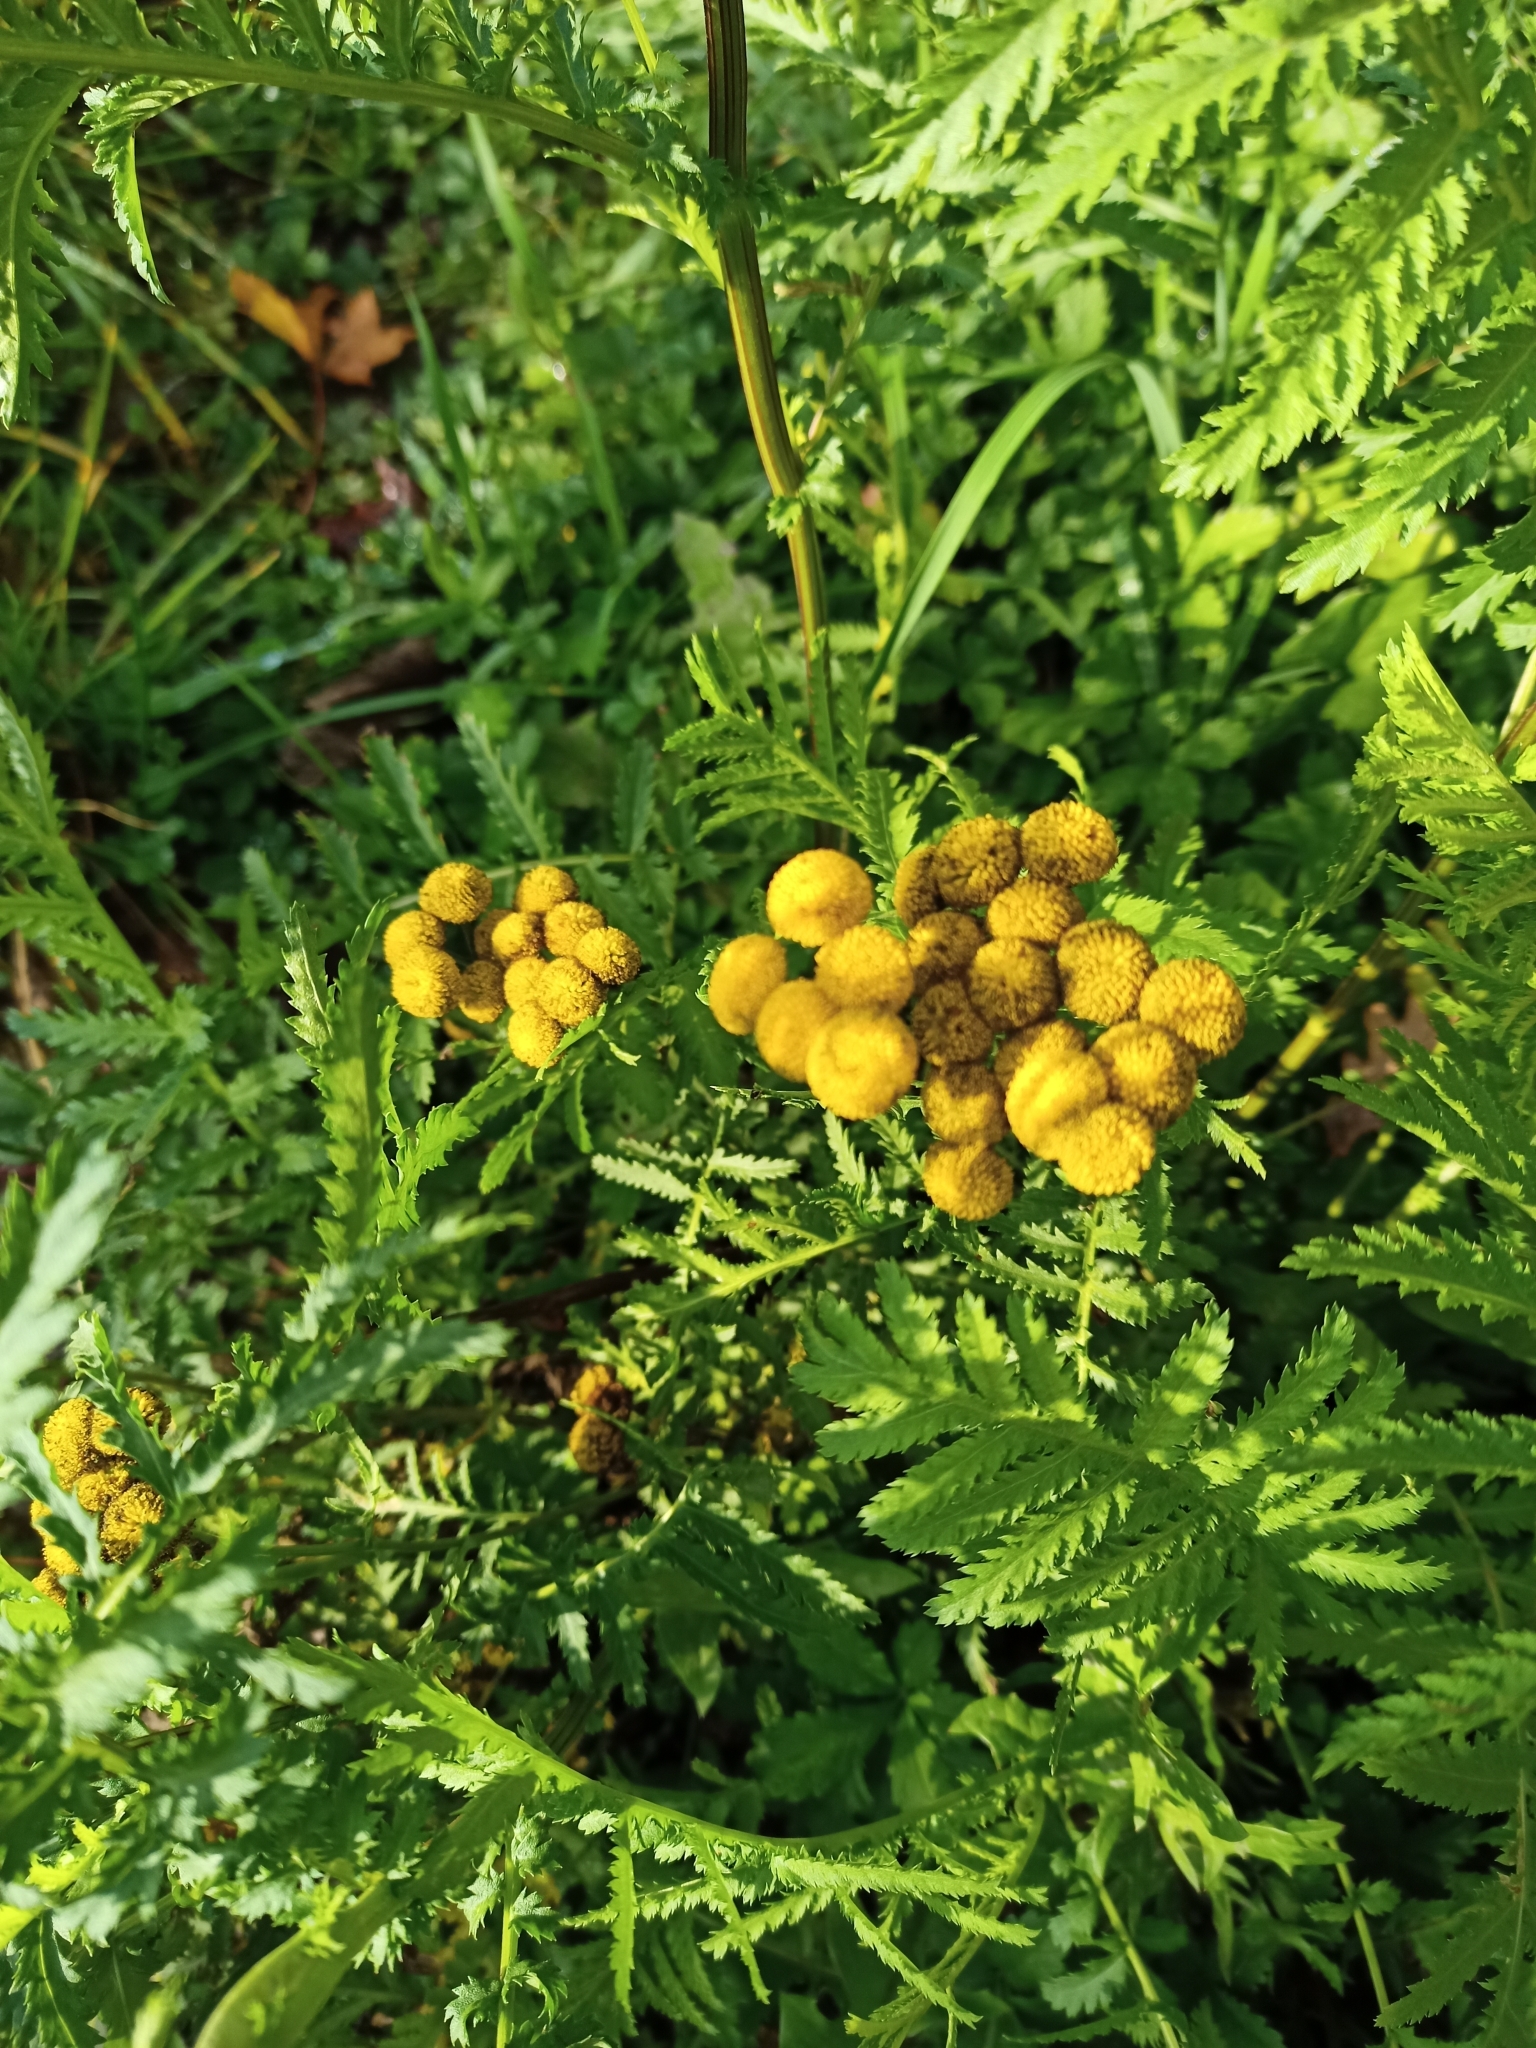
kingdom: Plantae
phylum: Tracheophyta
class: Magnoliopsida
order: Asterales
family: Asteraceae
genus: Tanacetum
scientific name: Tanacetum vulgare
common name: Common tansy
